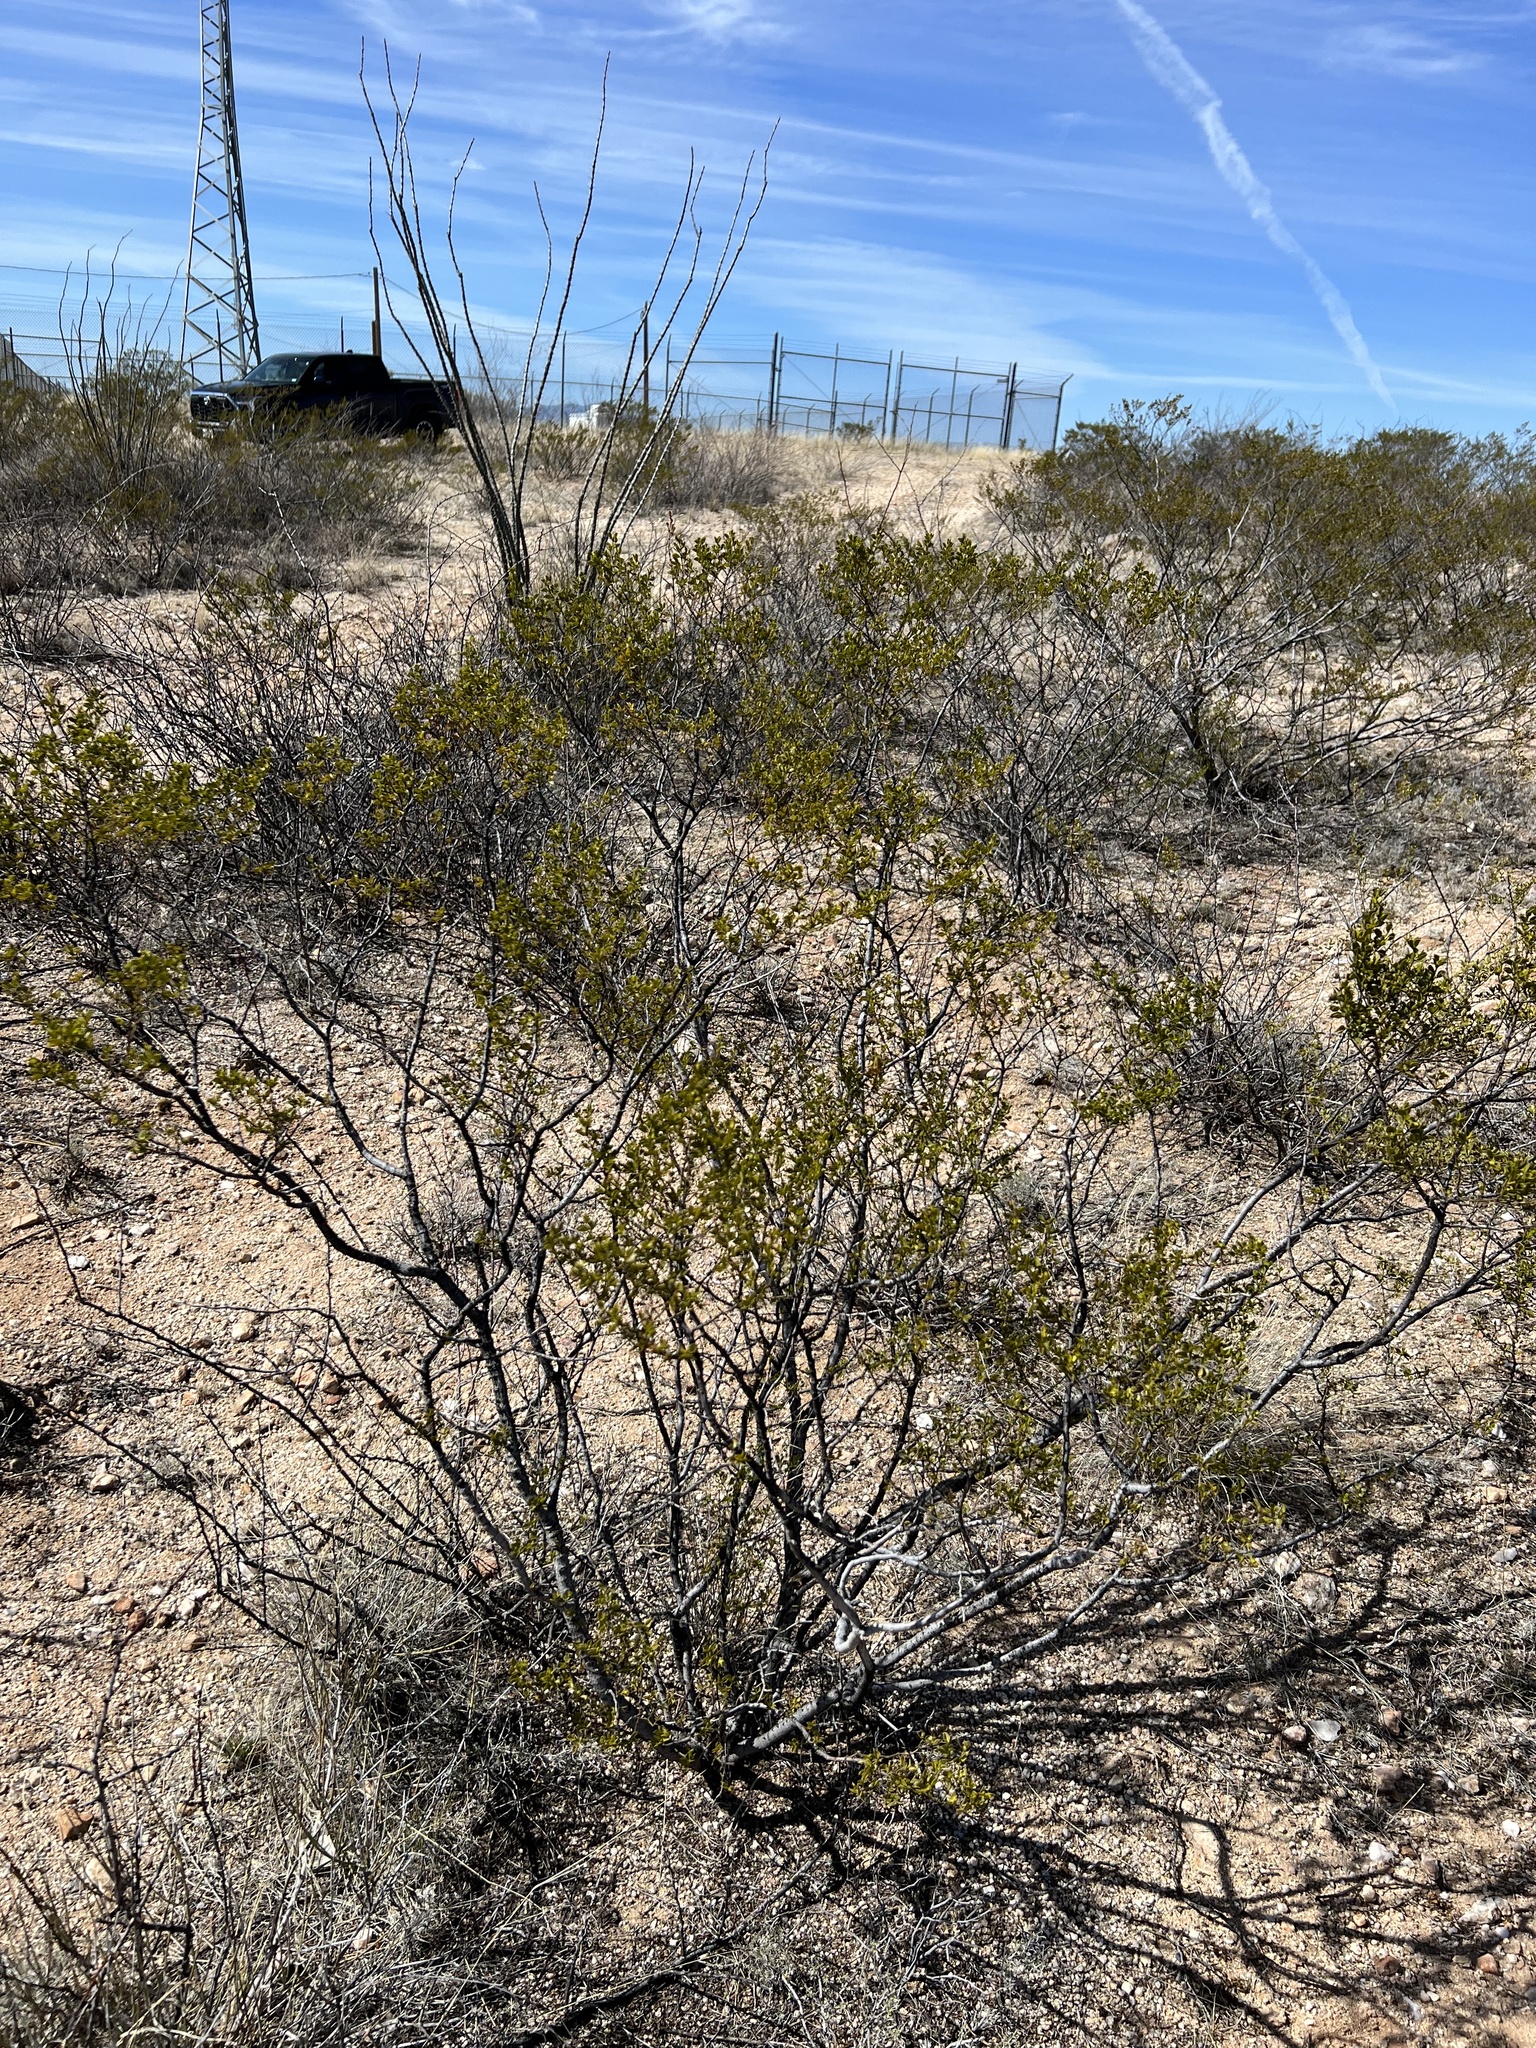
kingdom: Plantae
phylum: Tracheophyta
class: Magnoliopsida
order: Zygophyllales
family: Zygophyllaceae
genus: Larrea
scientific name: Larrea tridentata
